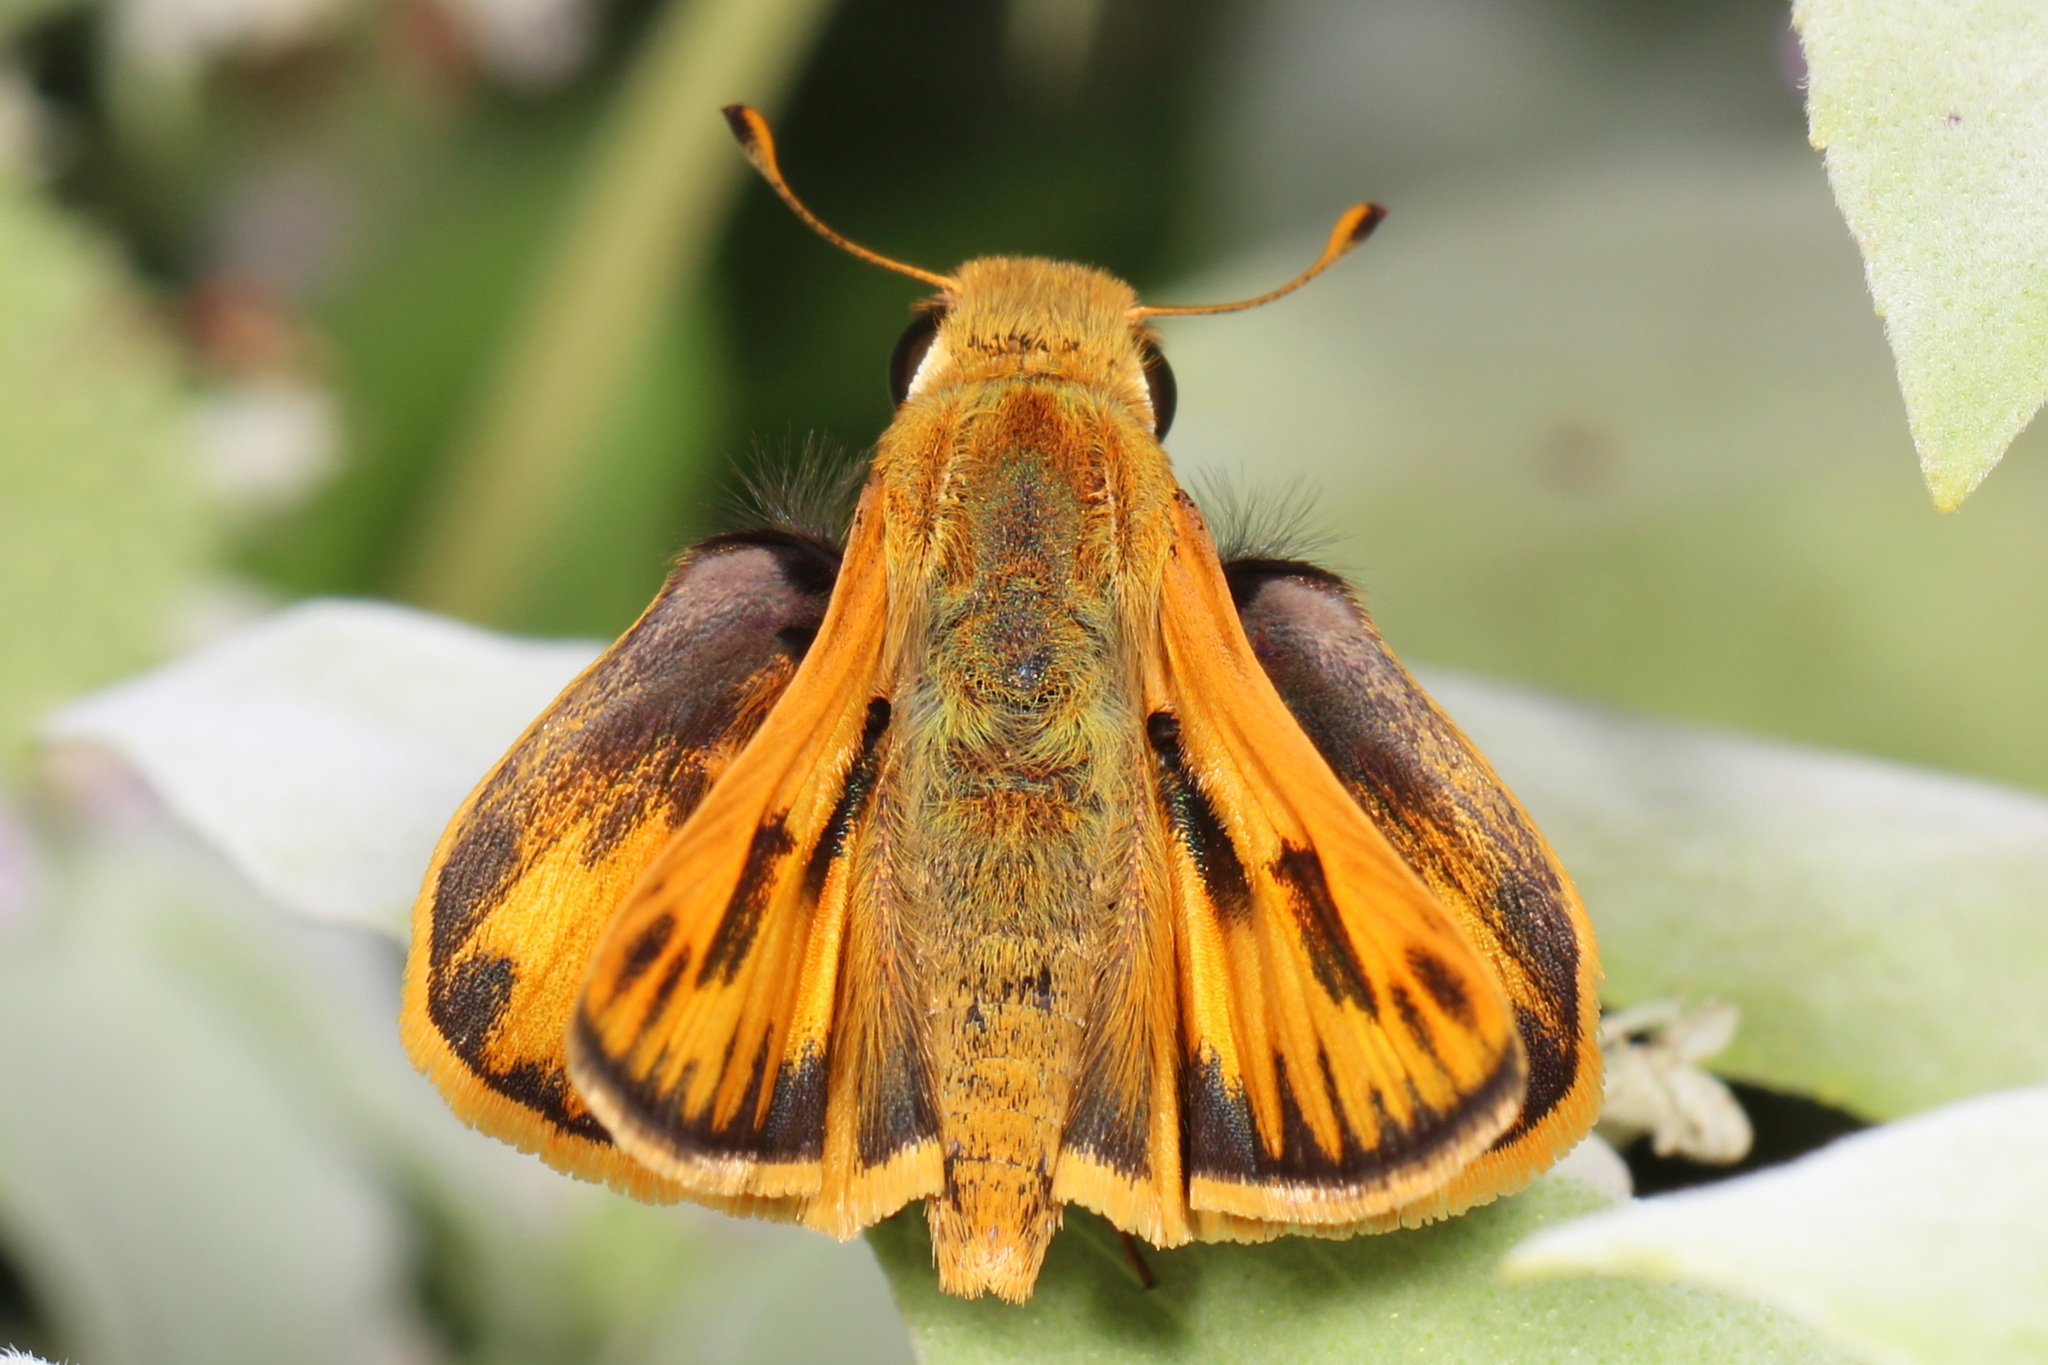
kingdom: Animalia
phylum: Arthropoda
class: Insecta
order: Lepidoptera
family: Hesperiidae
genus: Hylephila
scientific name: Hylephila phyleus
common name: Fiery skipper
